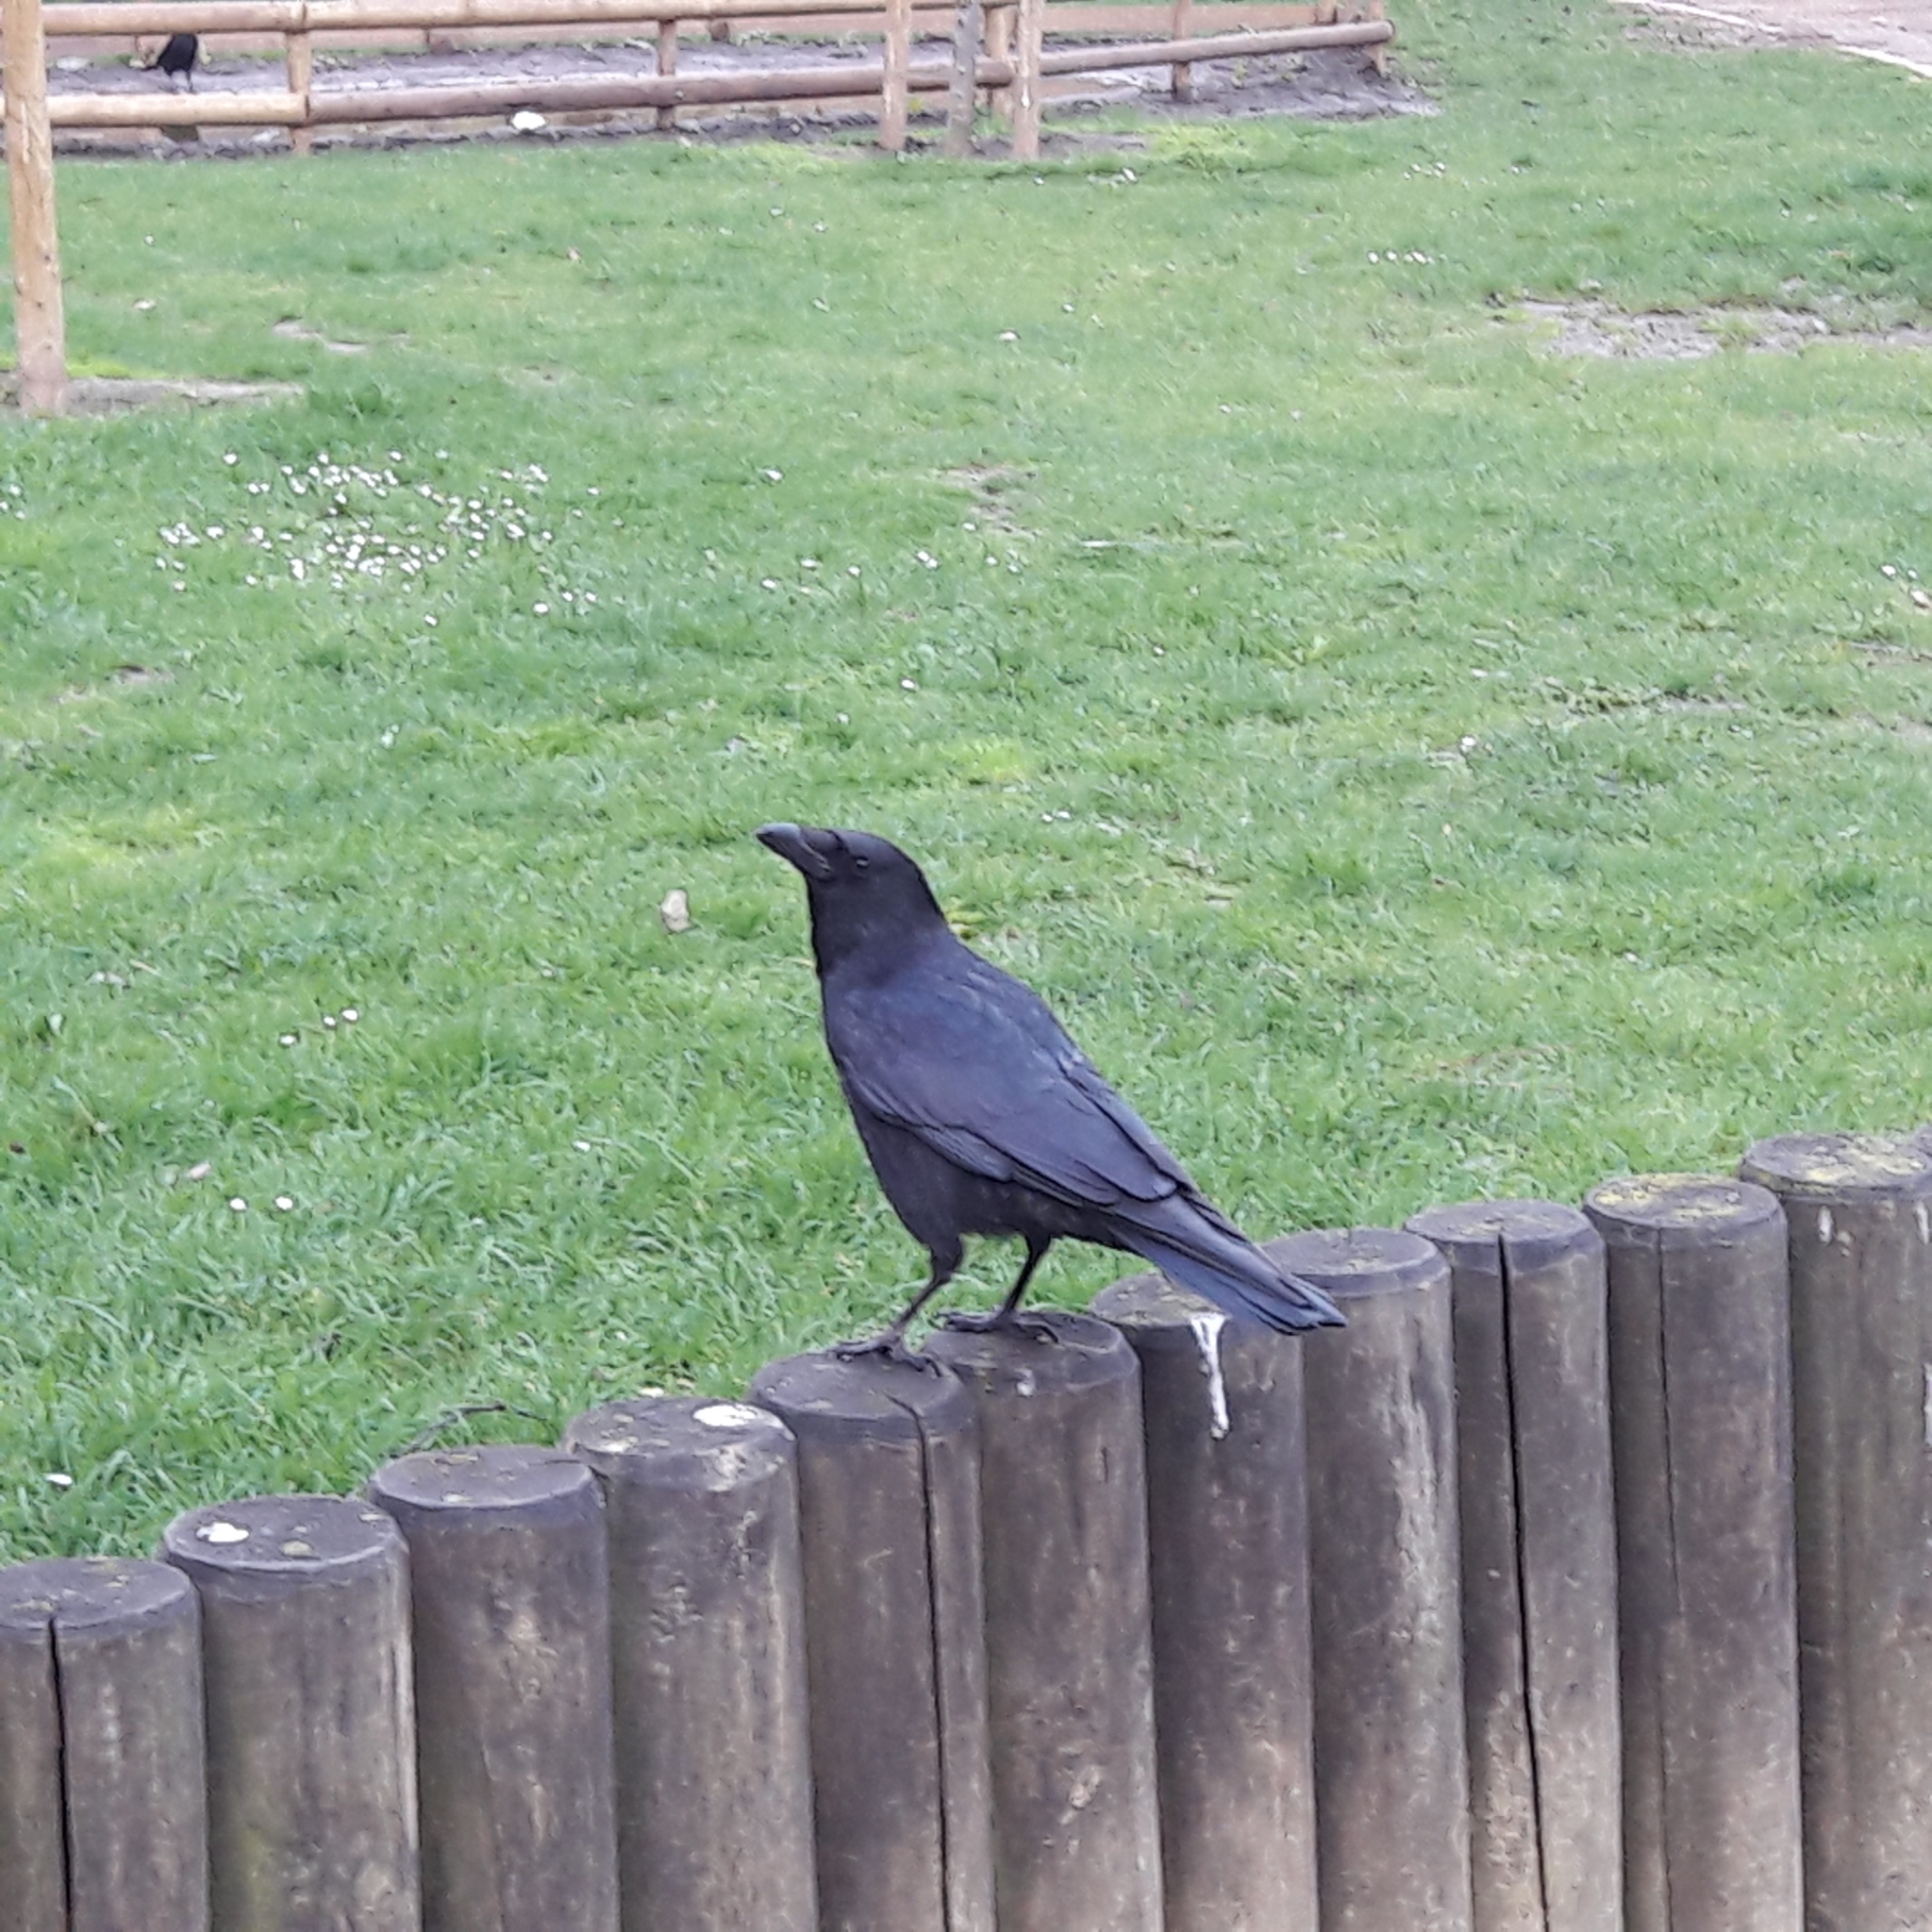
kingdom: Animalia
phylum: Chordata
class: Aves
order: Passeriformes
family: Corvidae
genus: Corvus
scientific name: Corvus corone
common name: Carrion crow
